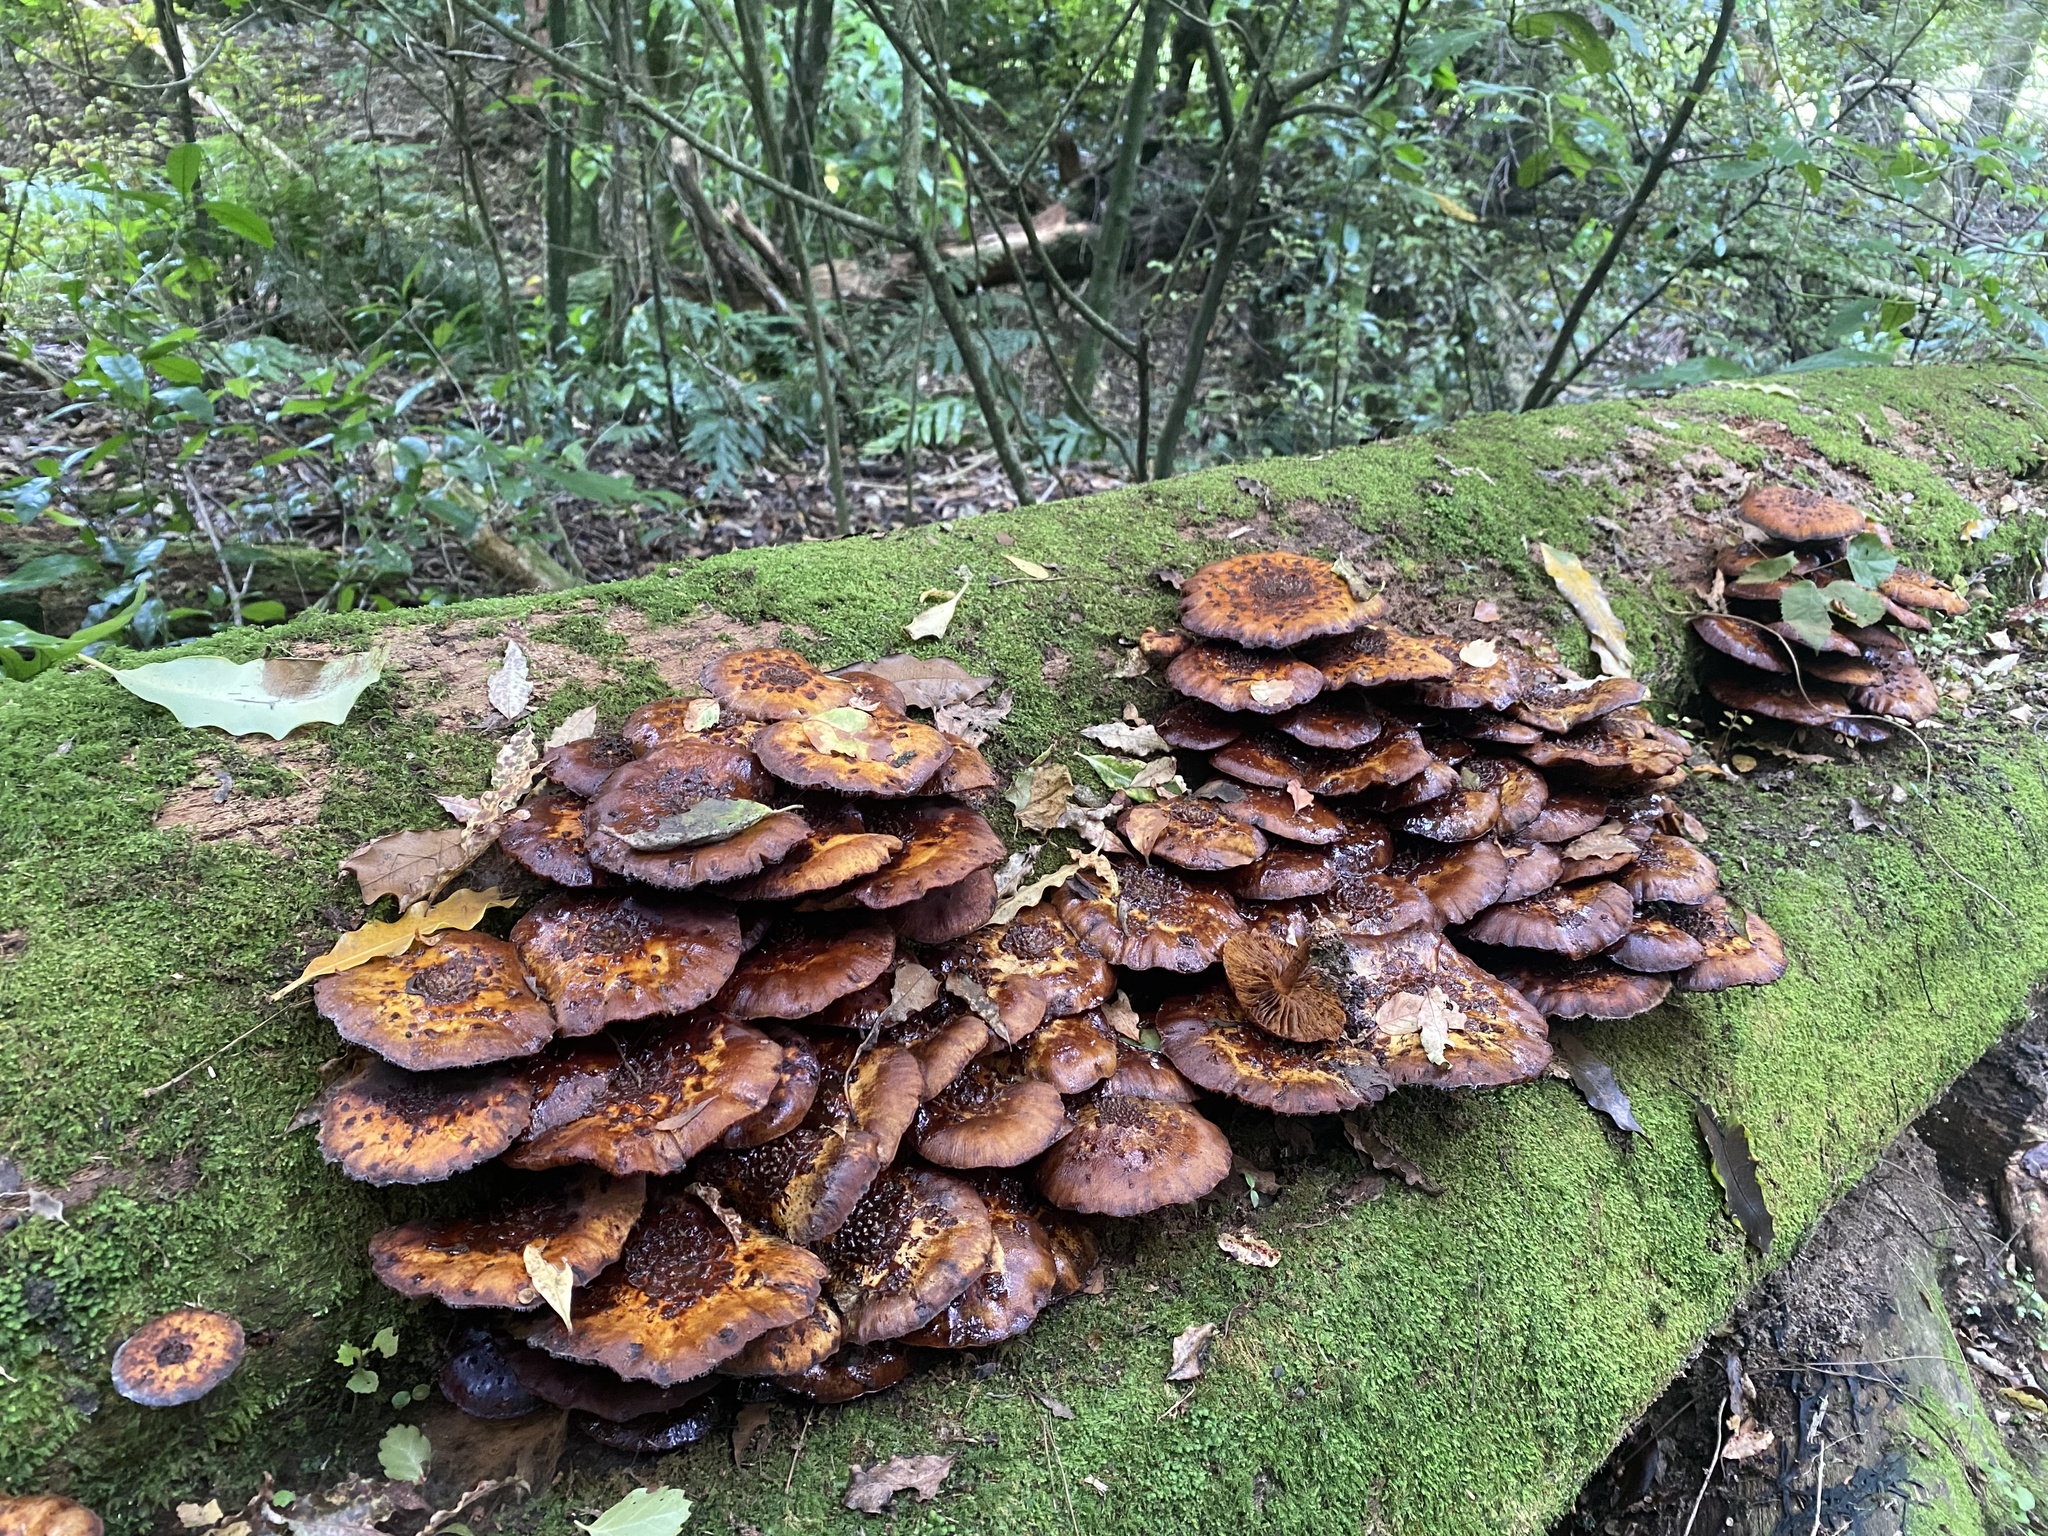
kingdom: Fungi
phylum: Basidiomycota
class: Agaricomycetes
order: Agaricales
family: Strophariaceae
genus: Pholiota
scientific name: Pholiota glutinosa
